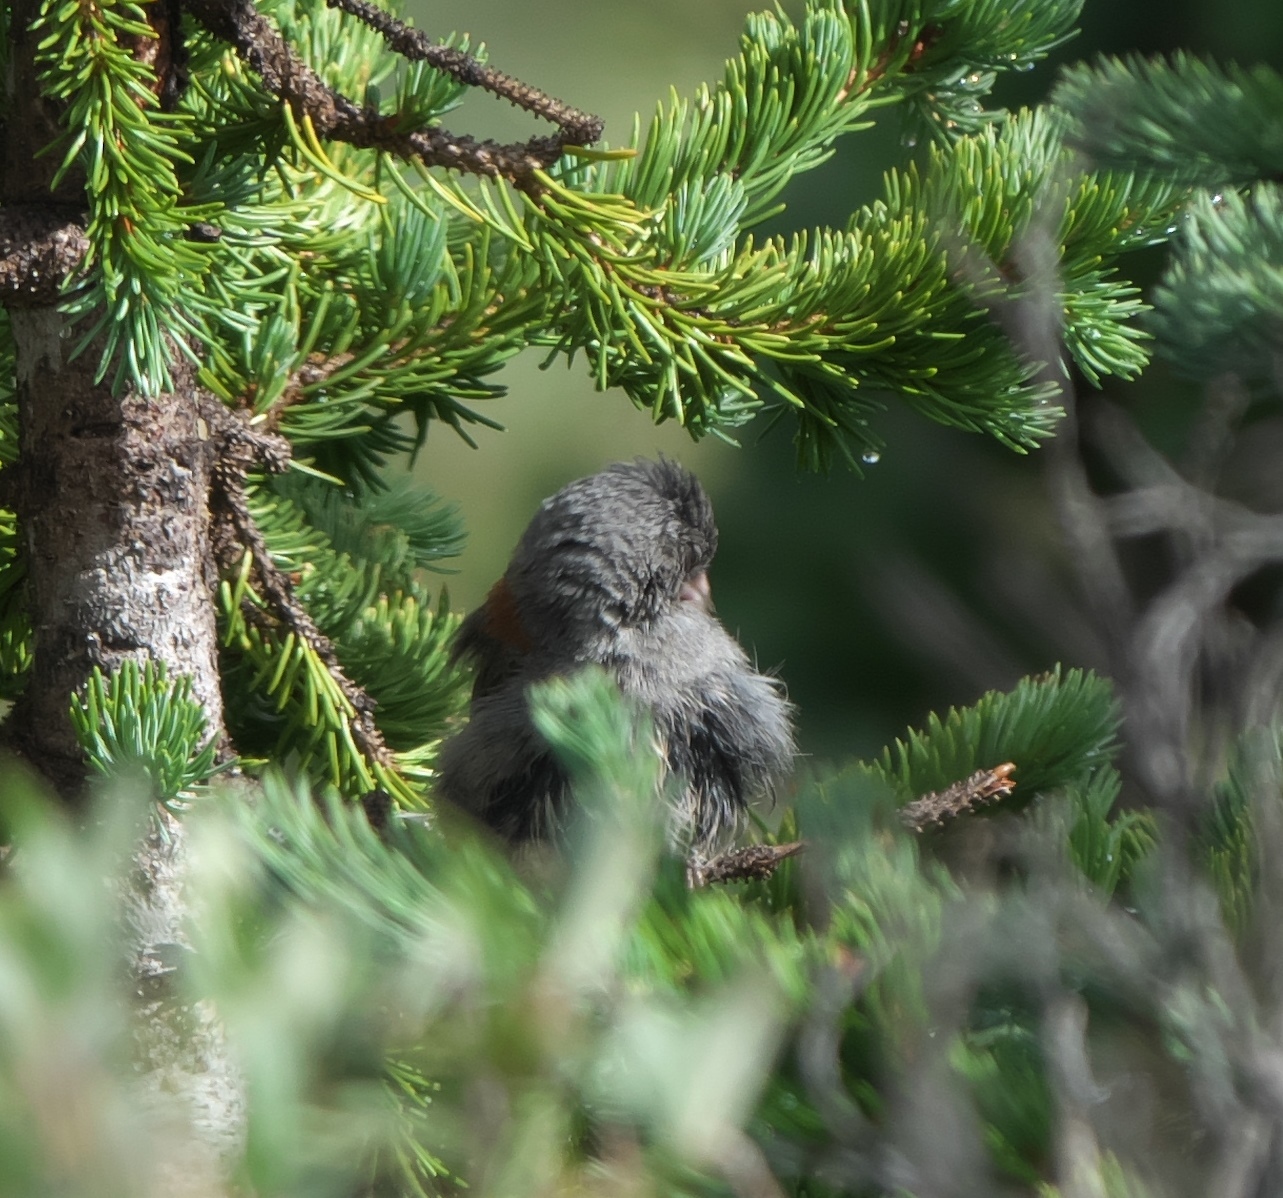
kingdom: Animalia
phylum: Chordata
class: Aves
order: Passeriformes
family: Passerellidae
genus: Junco
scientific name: Junco hyemalis
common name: Dark-eyed junco
